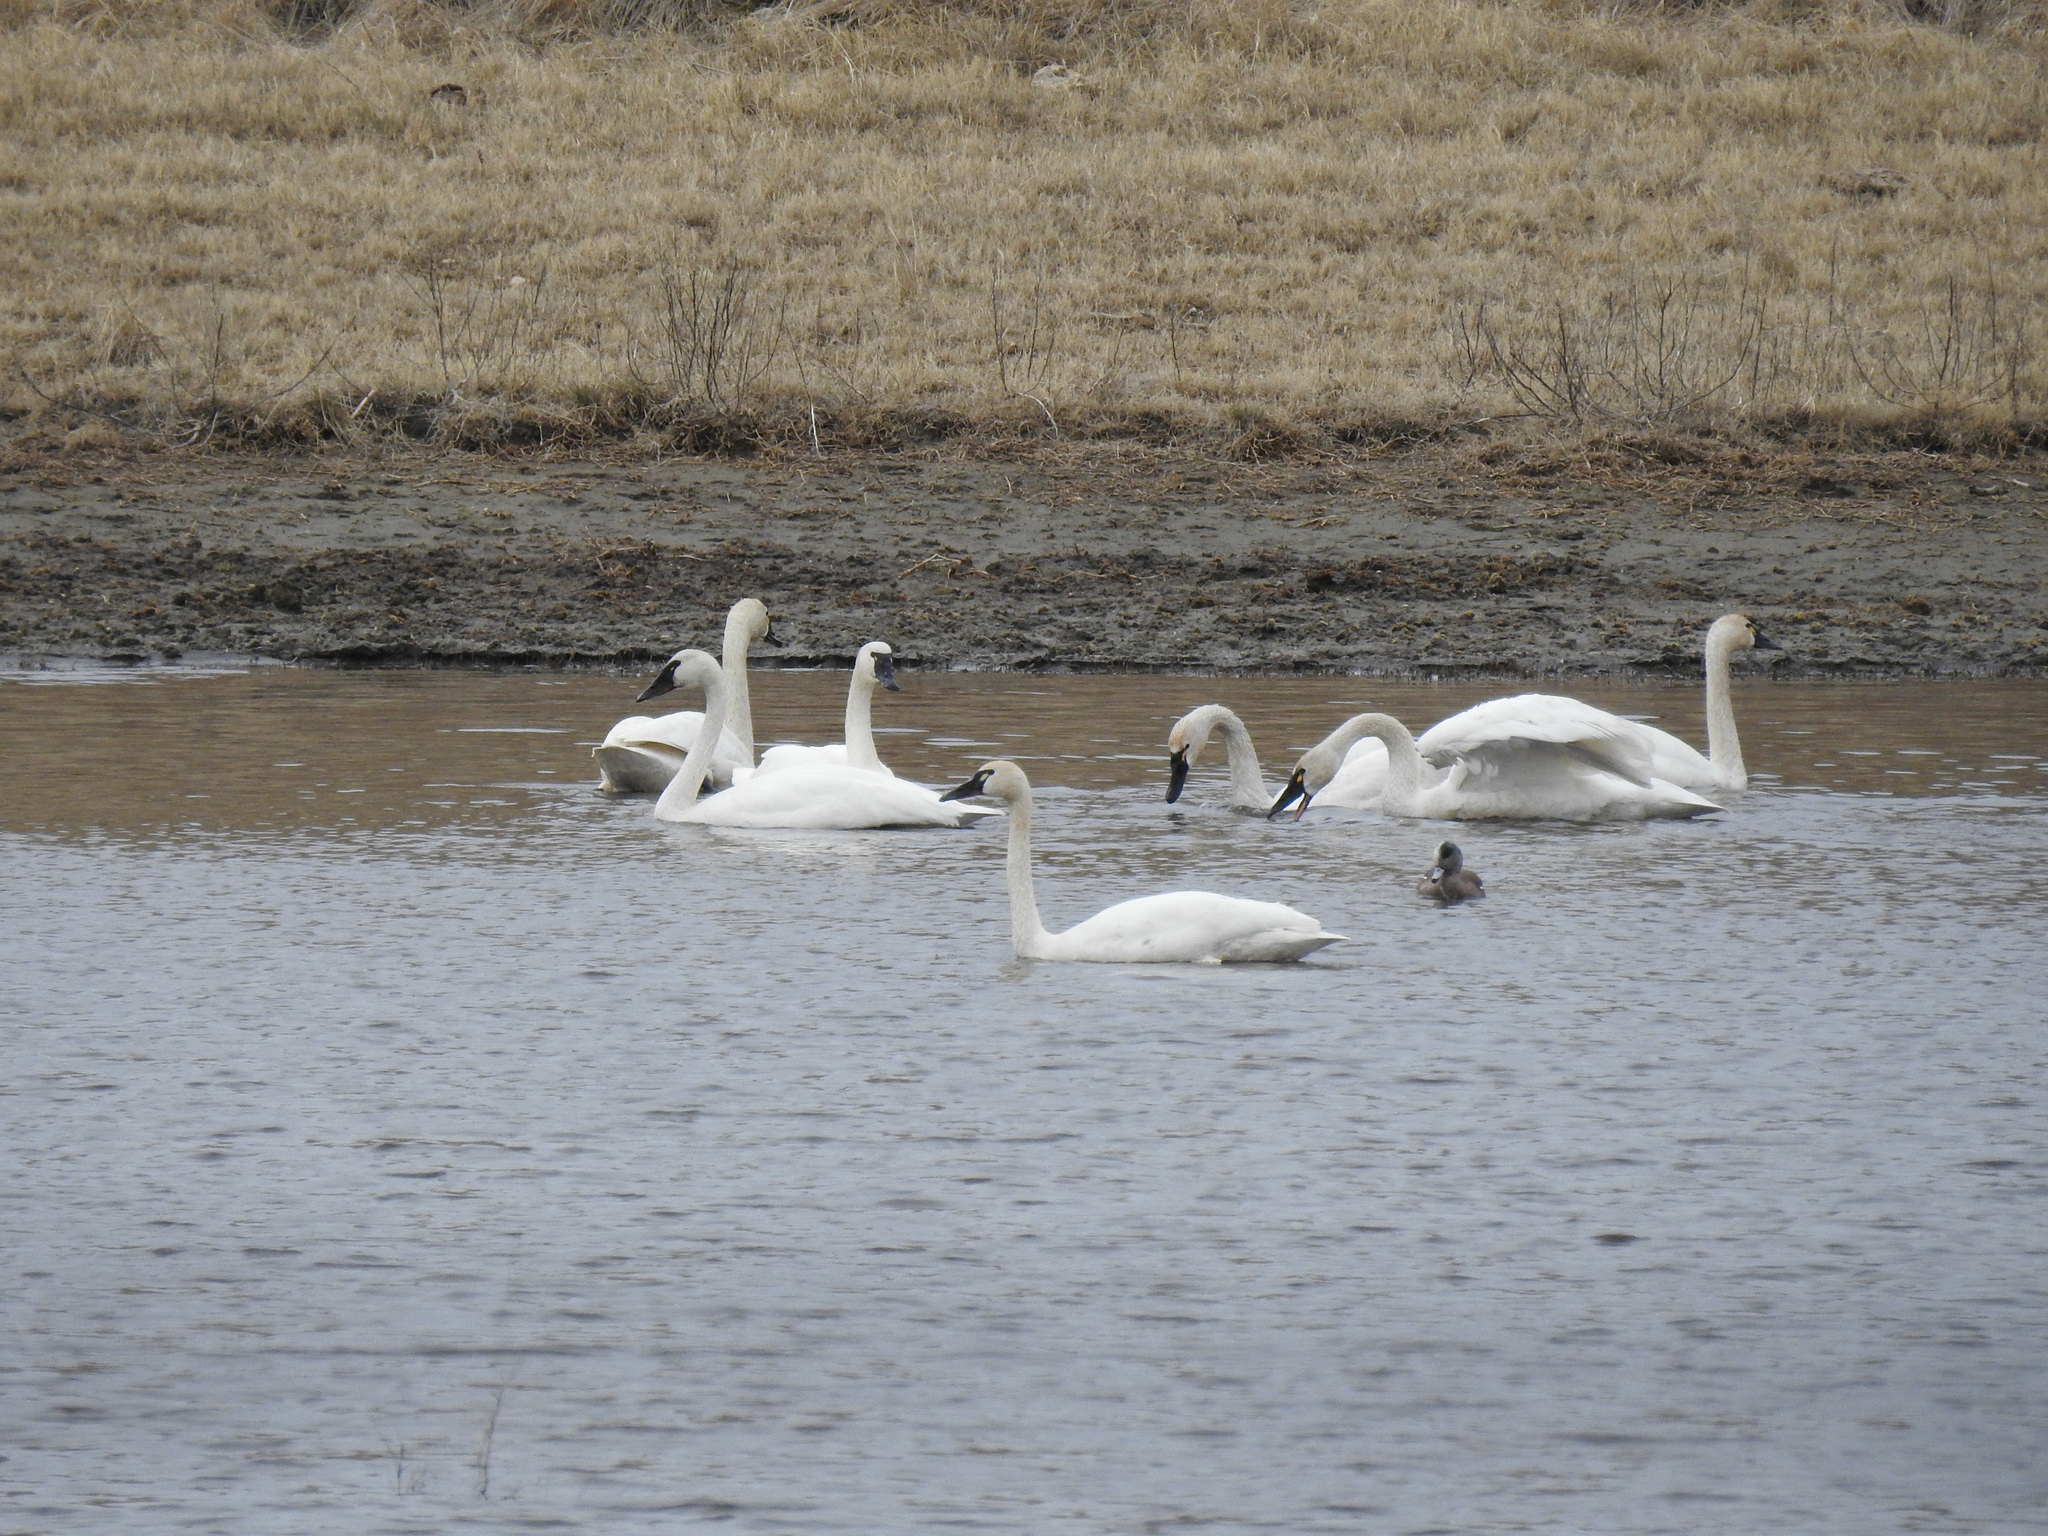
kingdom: Animalia
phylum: Chordata
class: Aves
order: Anseriformes
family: Anatidae
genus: Cygnus
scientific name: Cygnus columbianus
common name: Tundra swan
